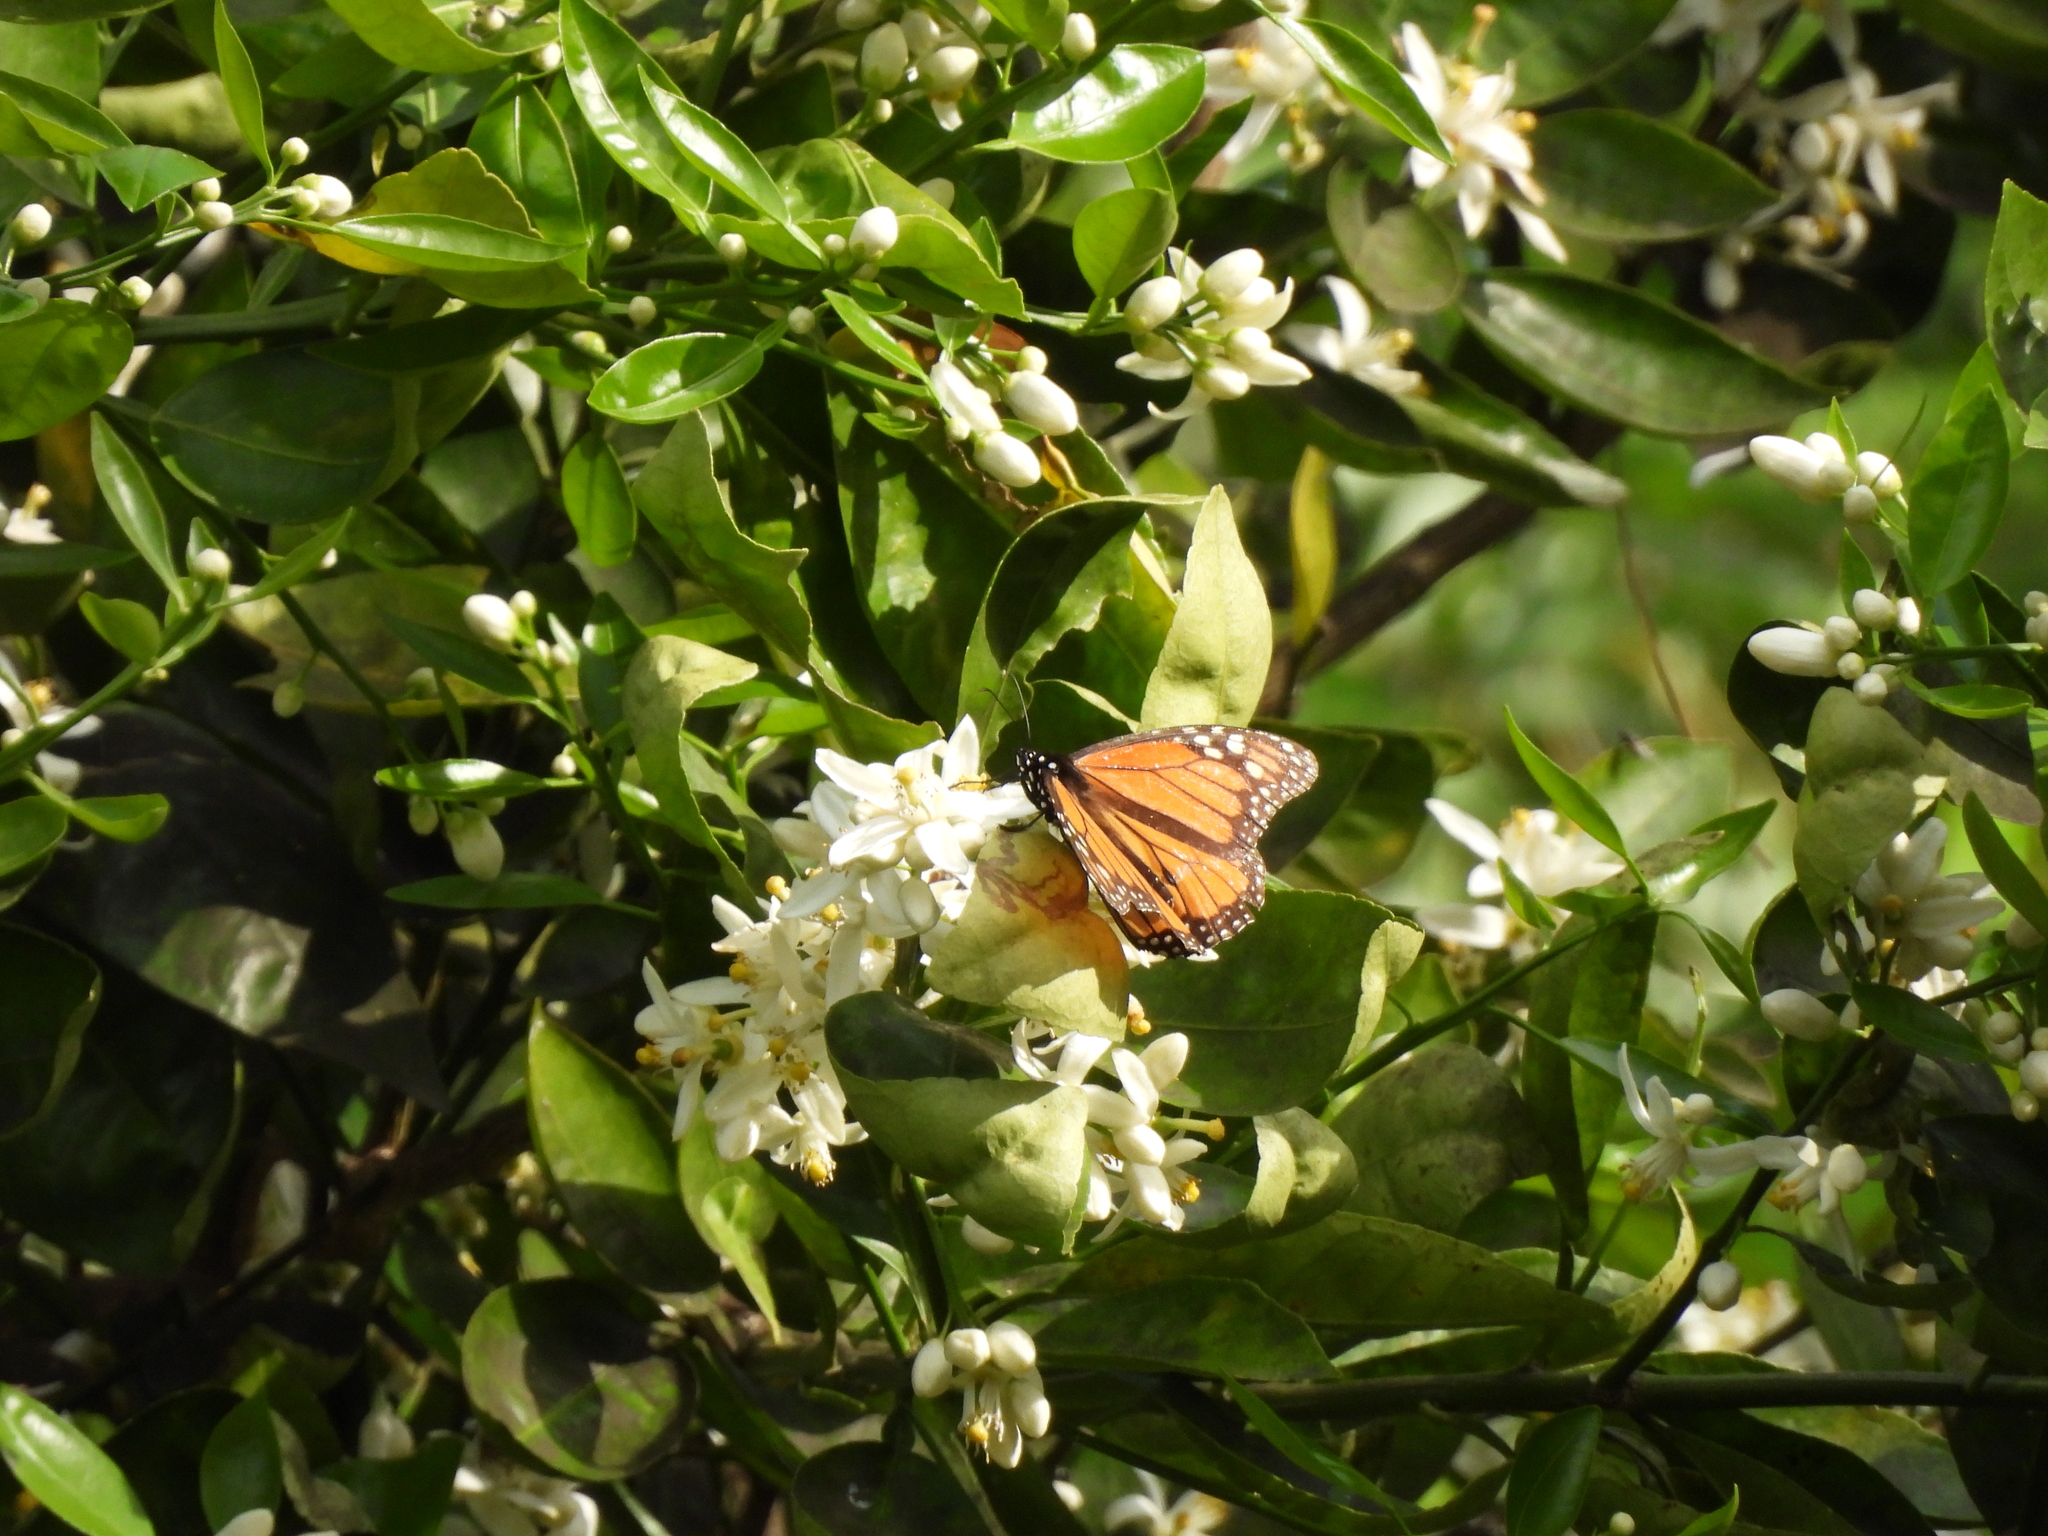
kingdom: Animalia
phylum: Arthropoda
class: Insecta
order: Lepidoptera
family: Nymphalidae
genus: Danaus
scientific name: Danaus plexippus
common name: Monarch
